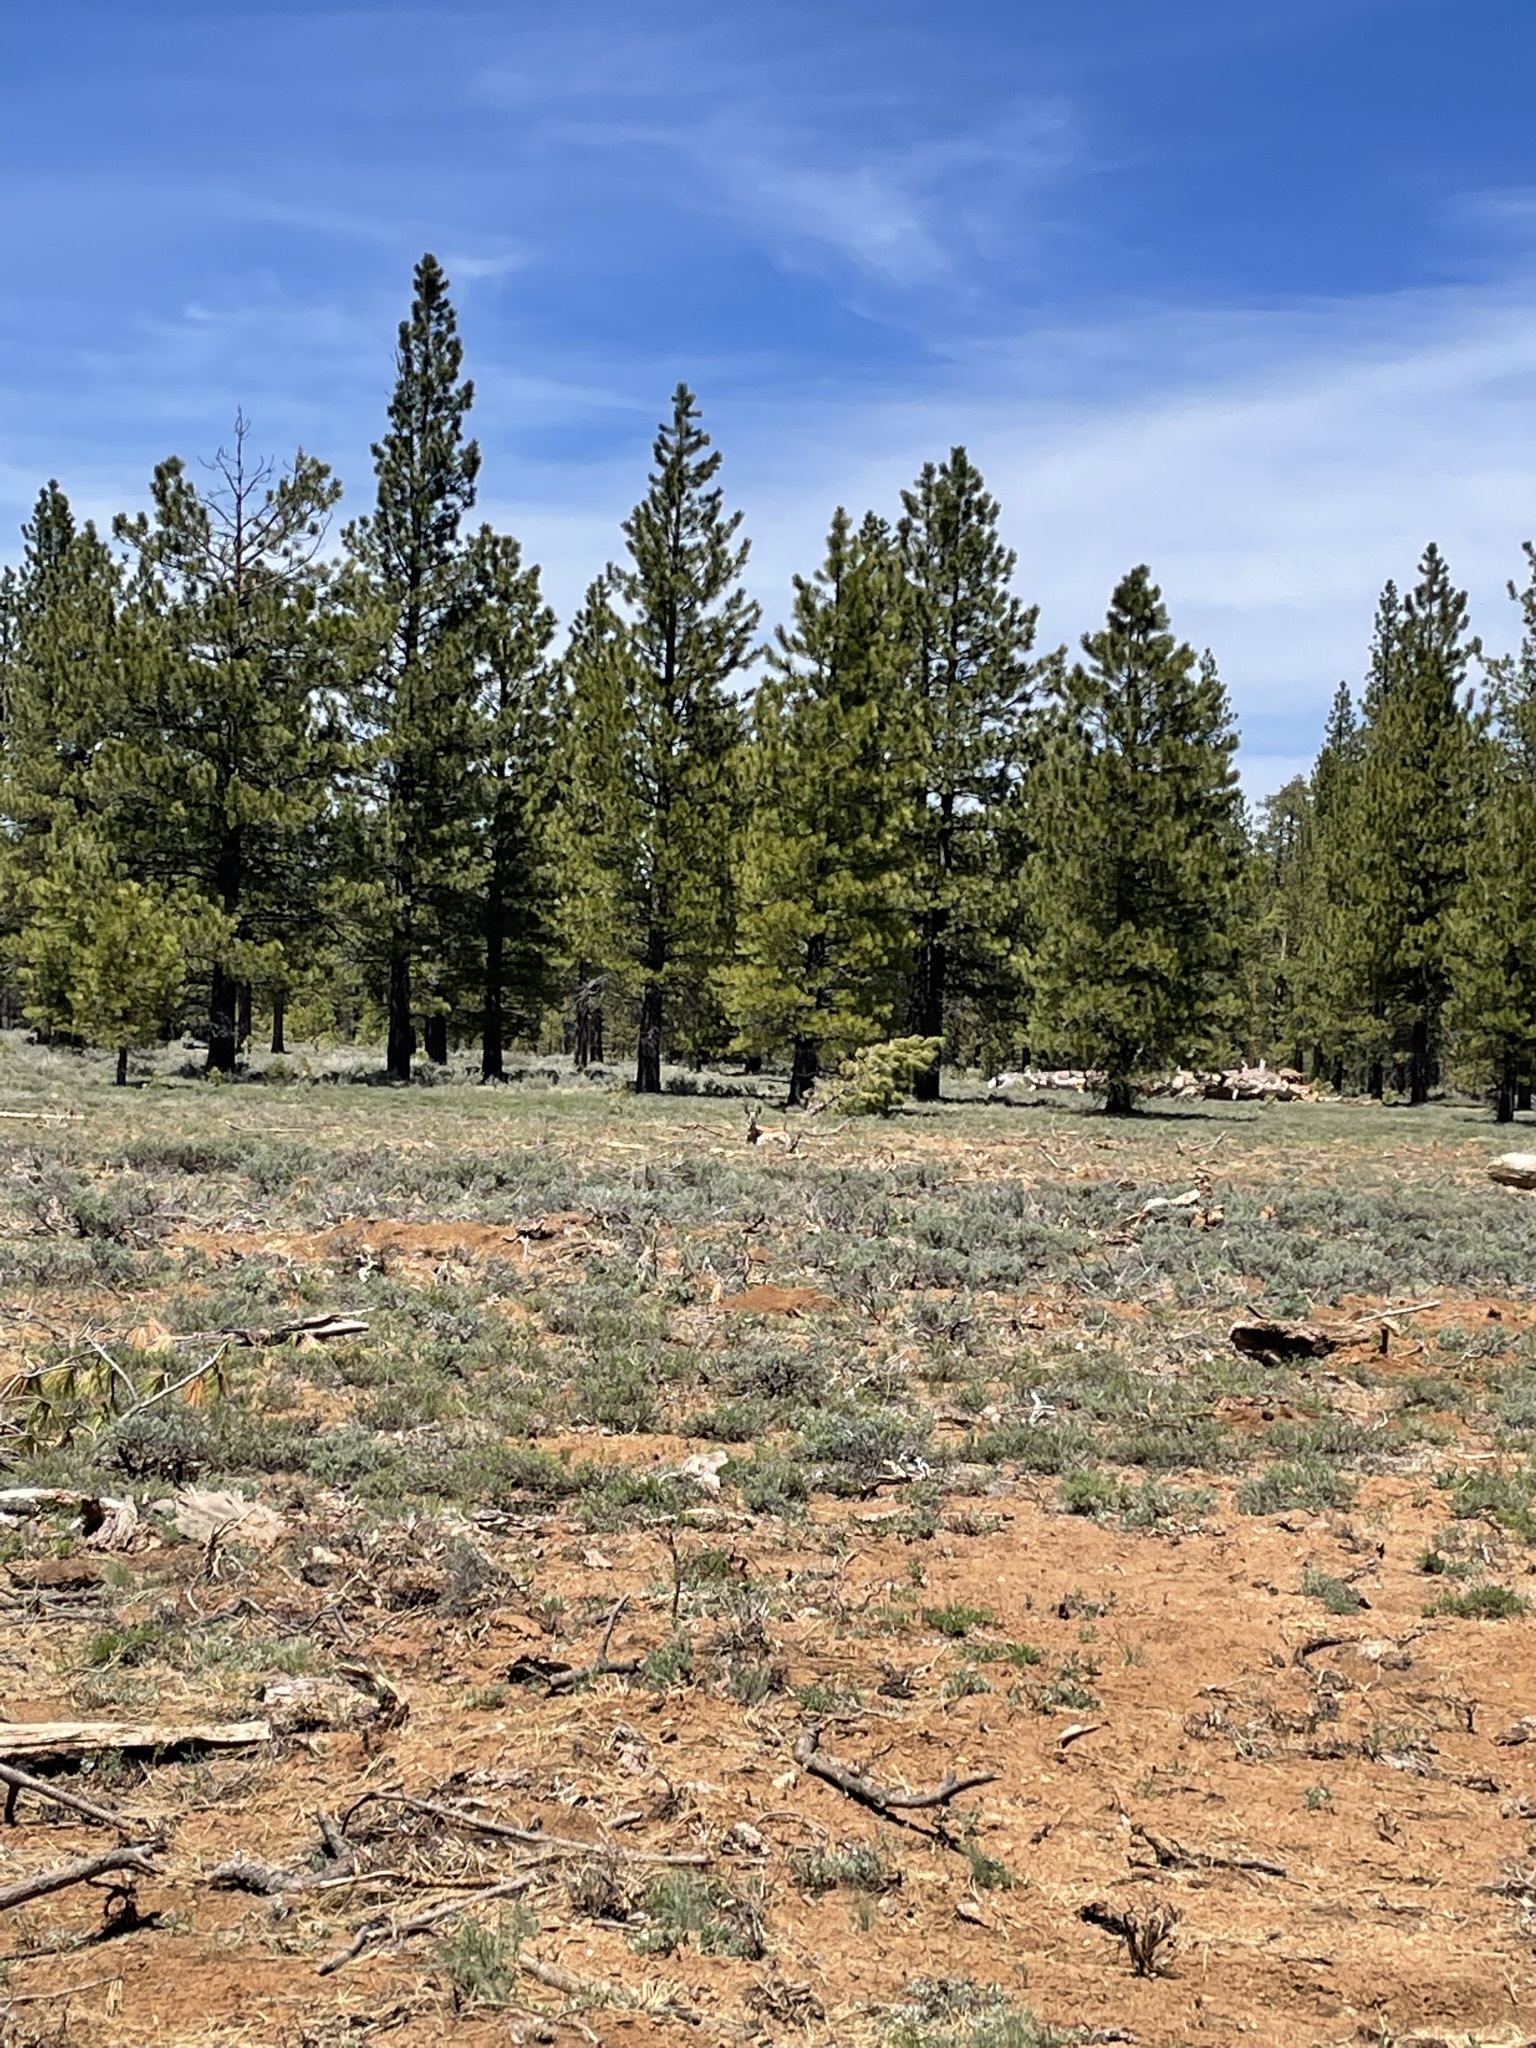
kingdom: Animalia
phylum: Chordata
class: Mammalia
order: Artiodactyla
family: Antilocapridae
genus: Antilocapra
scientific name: Antilocapra americana
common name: Pronghorn
